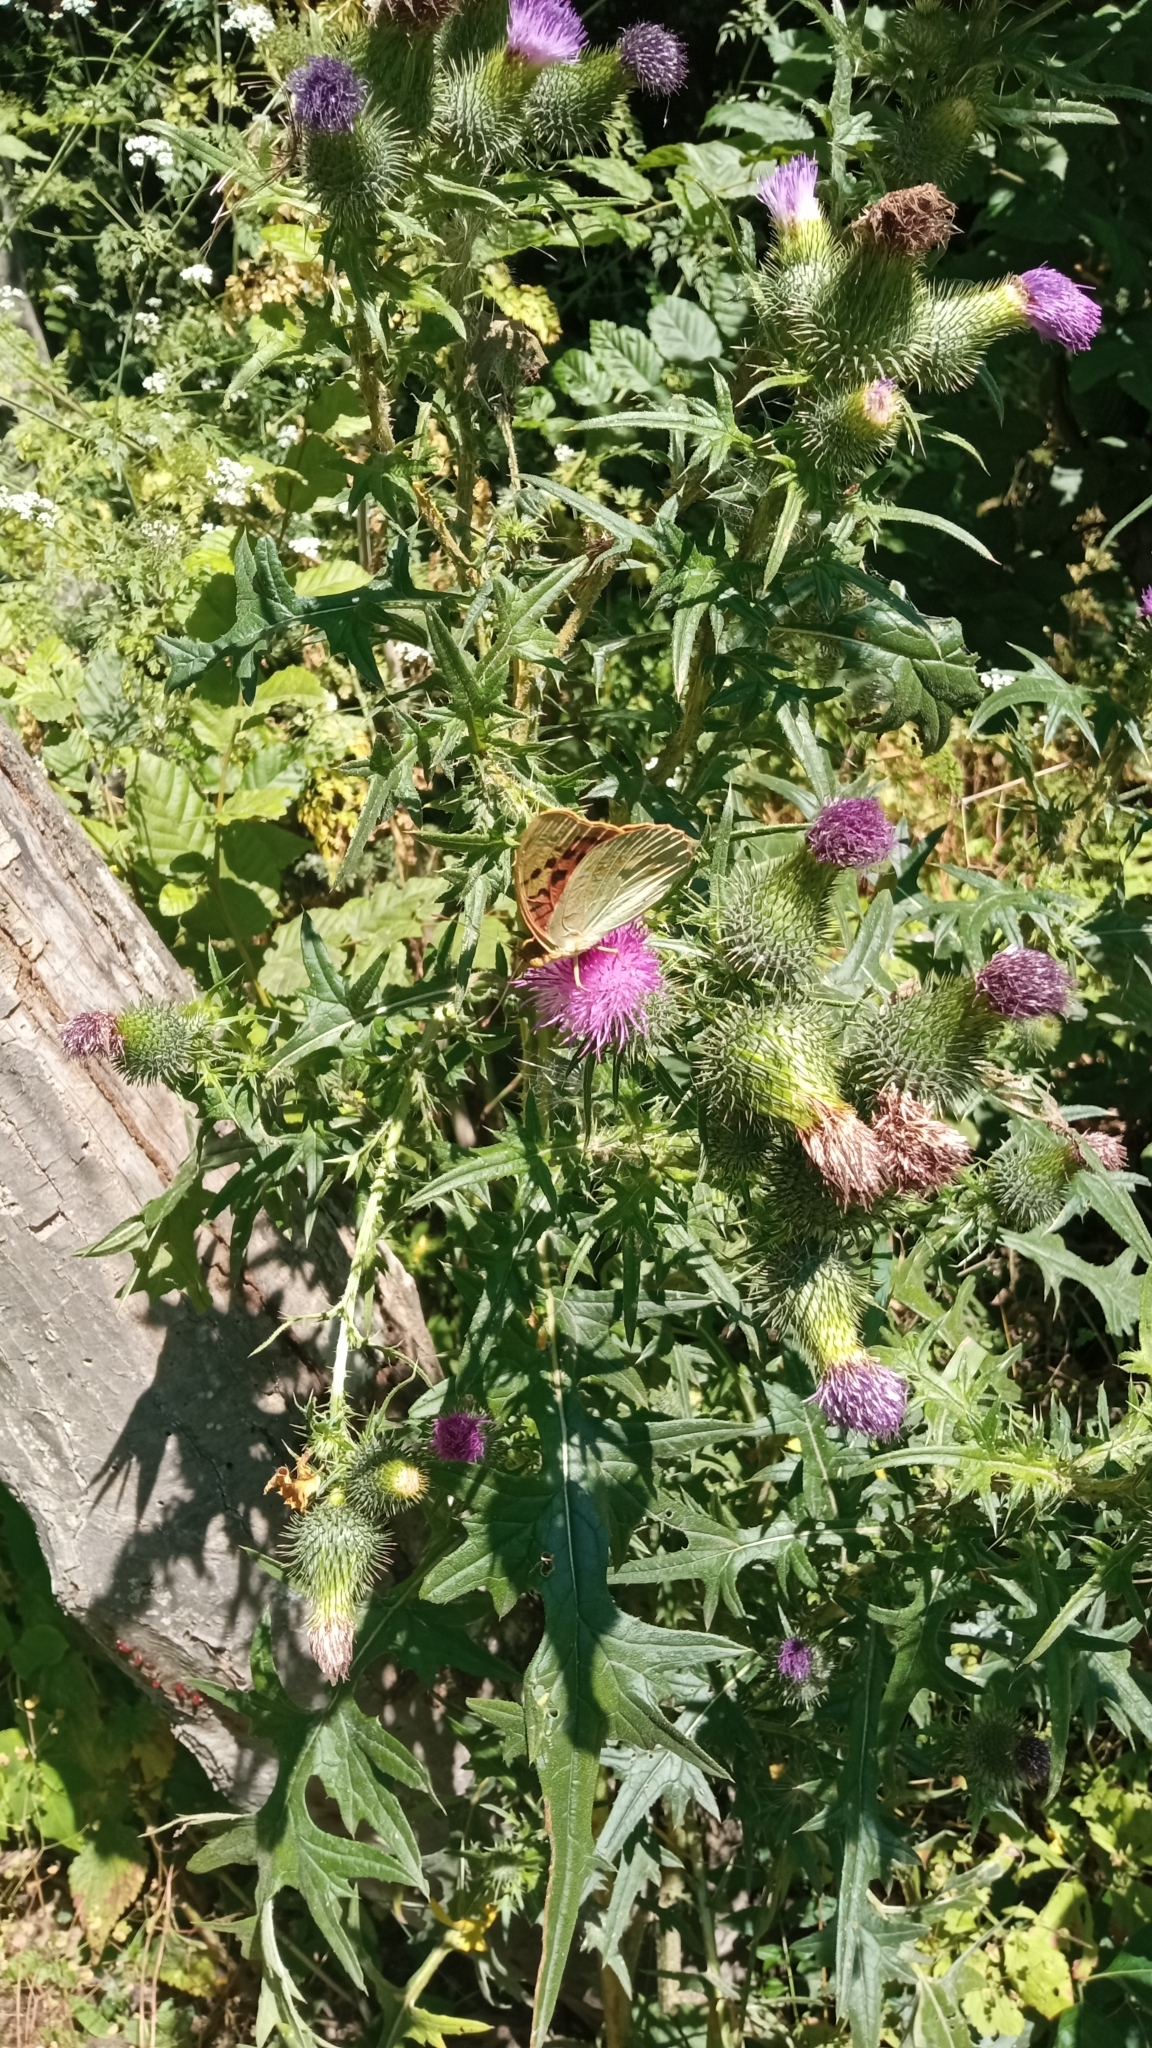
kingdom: Animalia
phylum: Arthropoda
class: Insecta
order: Lepidoptera
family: Nymphalidae
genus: Damora
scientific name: Damora pandora
